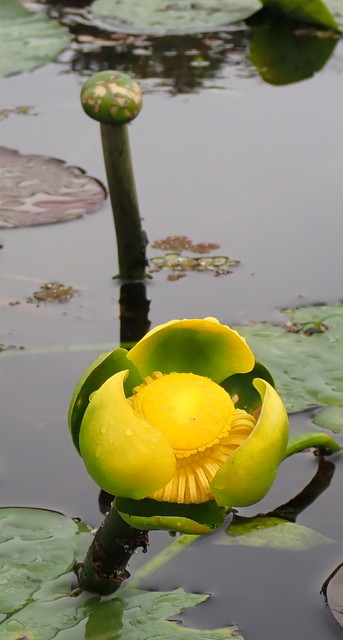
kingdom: Plantae
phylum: Tracheophyta
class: Magnoliopsida
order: Nymphaeales
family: Nymphaeaceae
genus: Nuphar
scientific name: Nuphar advena
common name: Spatter-dock
